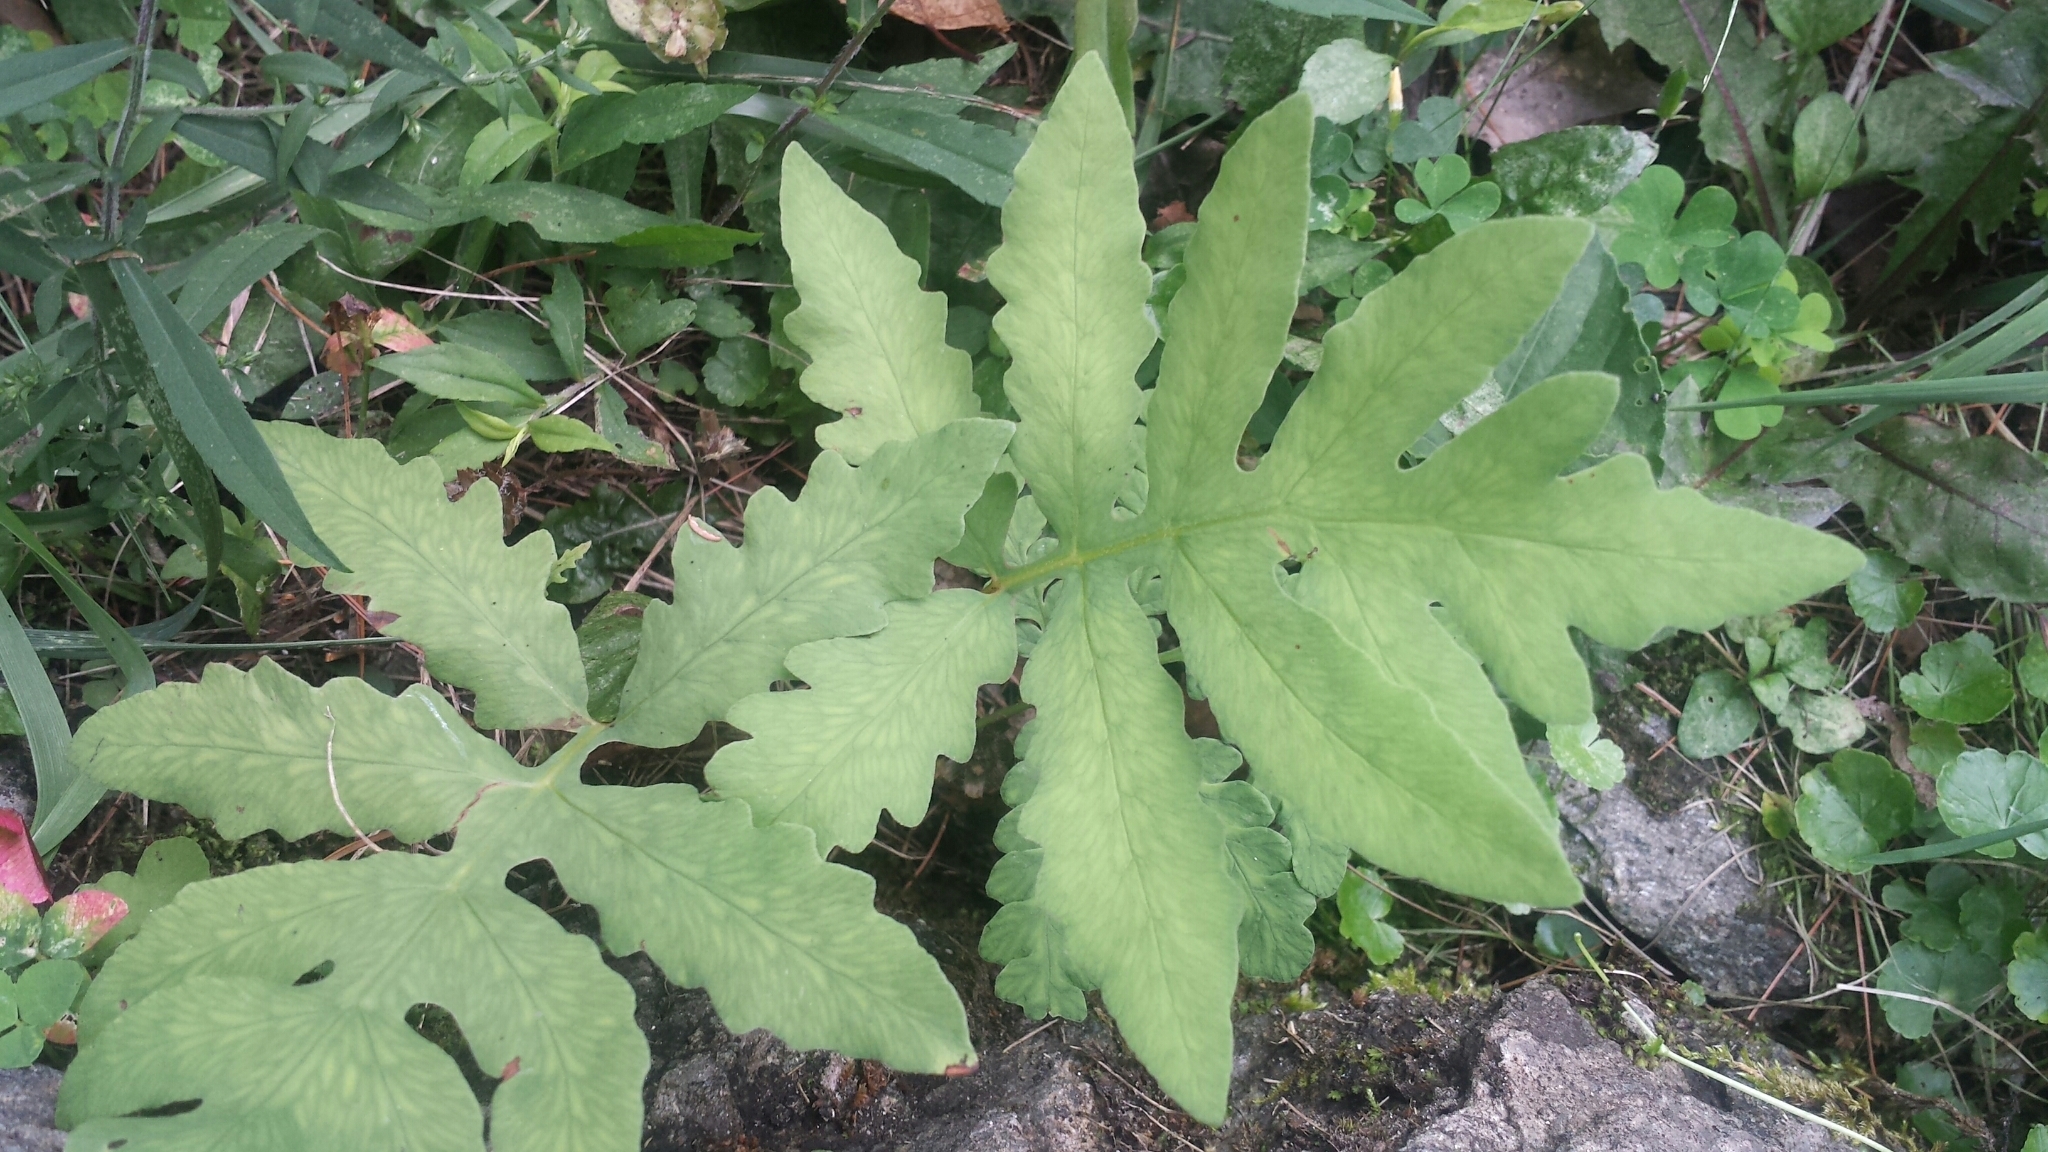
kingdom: Plantae
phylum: Tracheophyta
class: Polypodiopsida
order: Polypodiales
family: Onocleaceae
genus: Onoclea
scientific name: Onoclea sensibilis
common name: Sensitive fern
